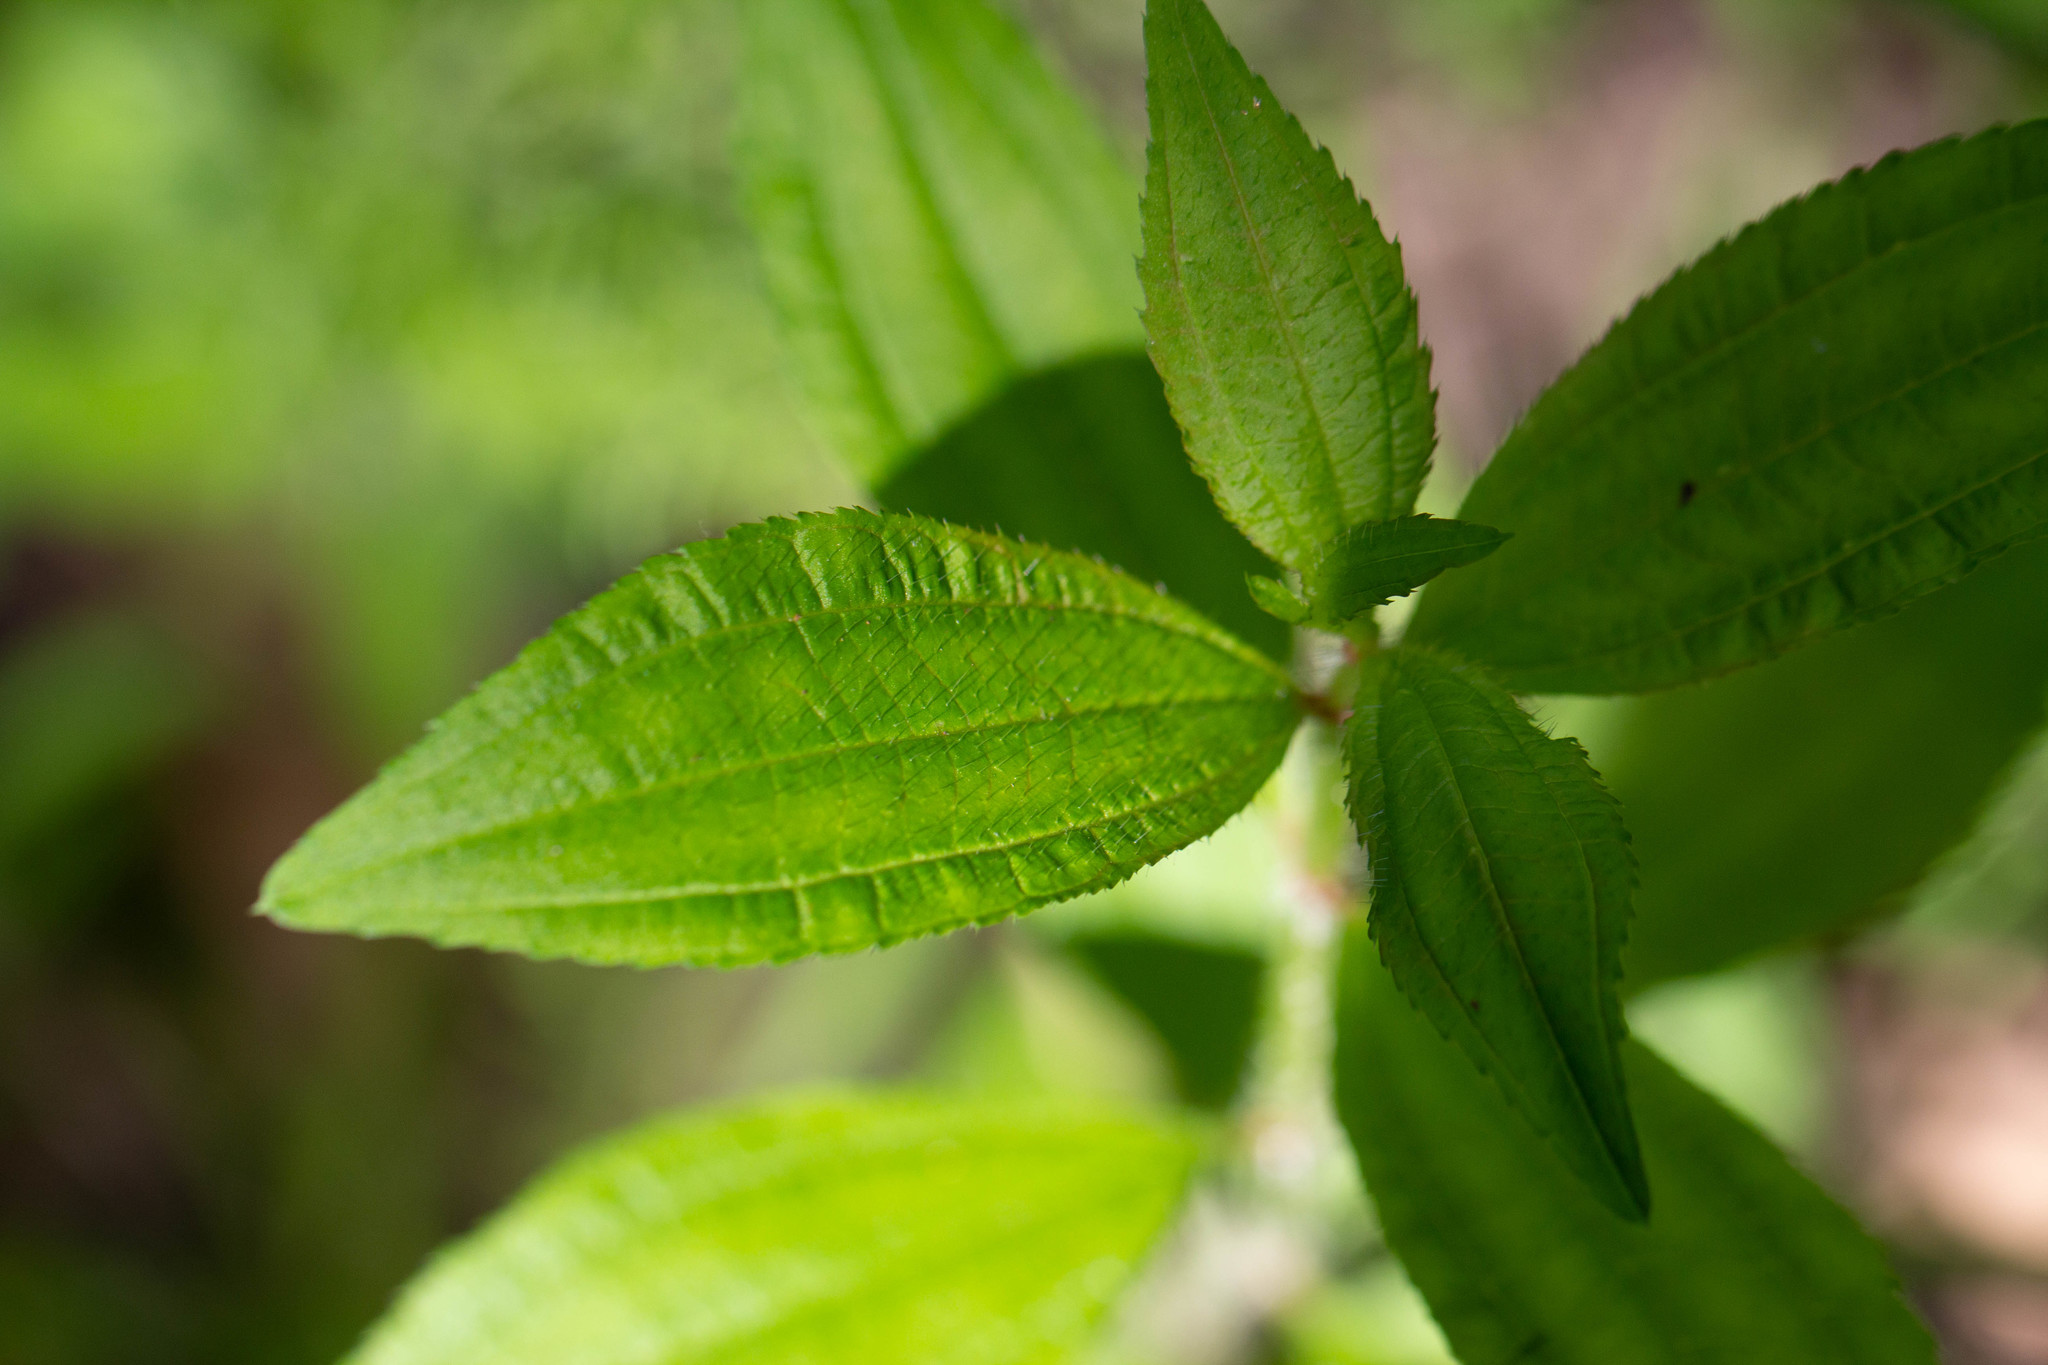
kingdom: Plantae
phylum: Tracheophyta
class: Magnoliopsida
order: Myrtales
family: Melastomataceae
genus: Rhexia
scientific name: Rhexia virginica
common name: Common meadow beauty
